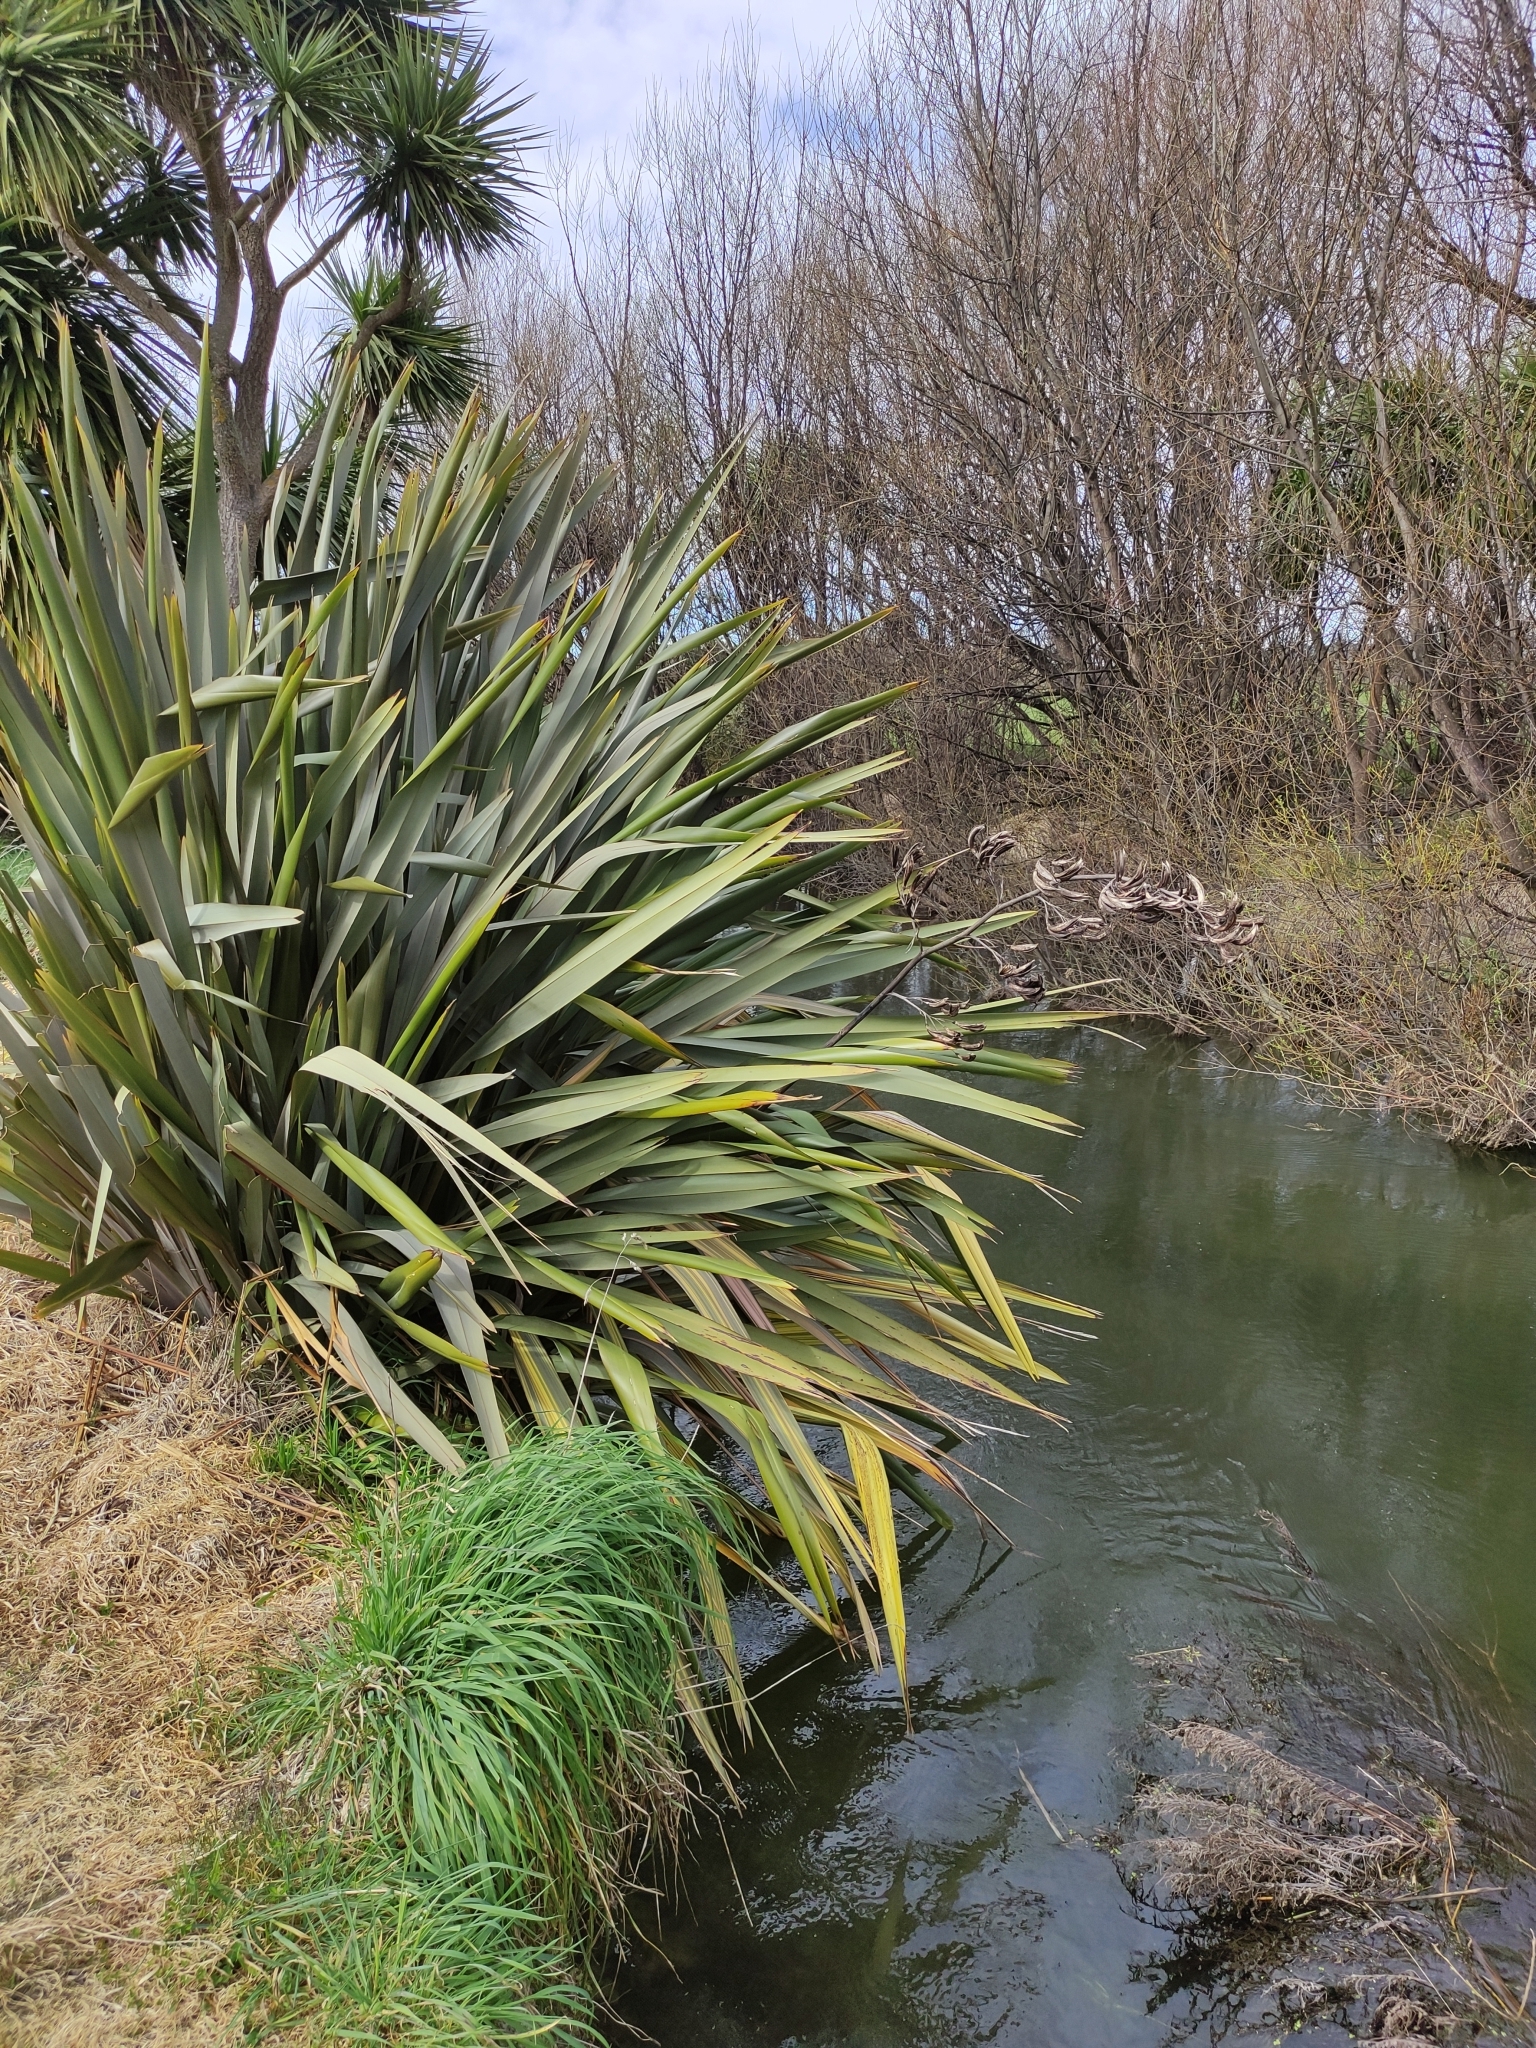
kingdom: Plantae
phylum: Tracheophyta
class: Liliopsida
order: Asparagales
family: Asphodelaceae
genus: Phormium
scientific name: Phormium tenax
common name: New zealand flax
